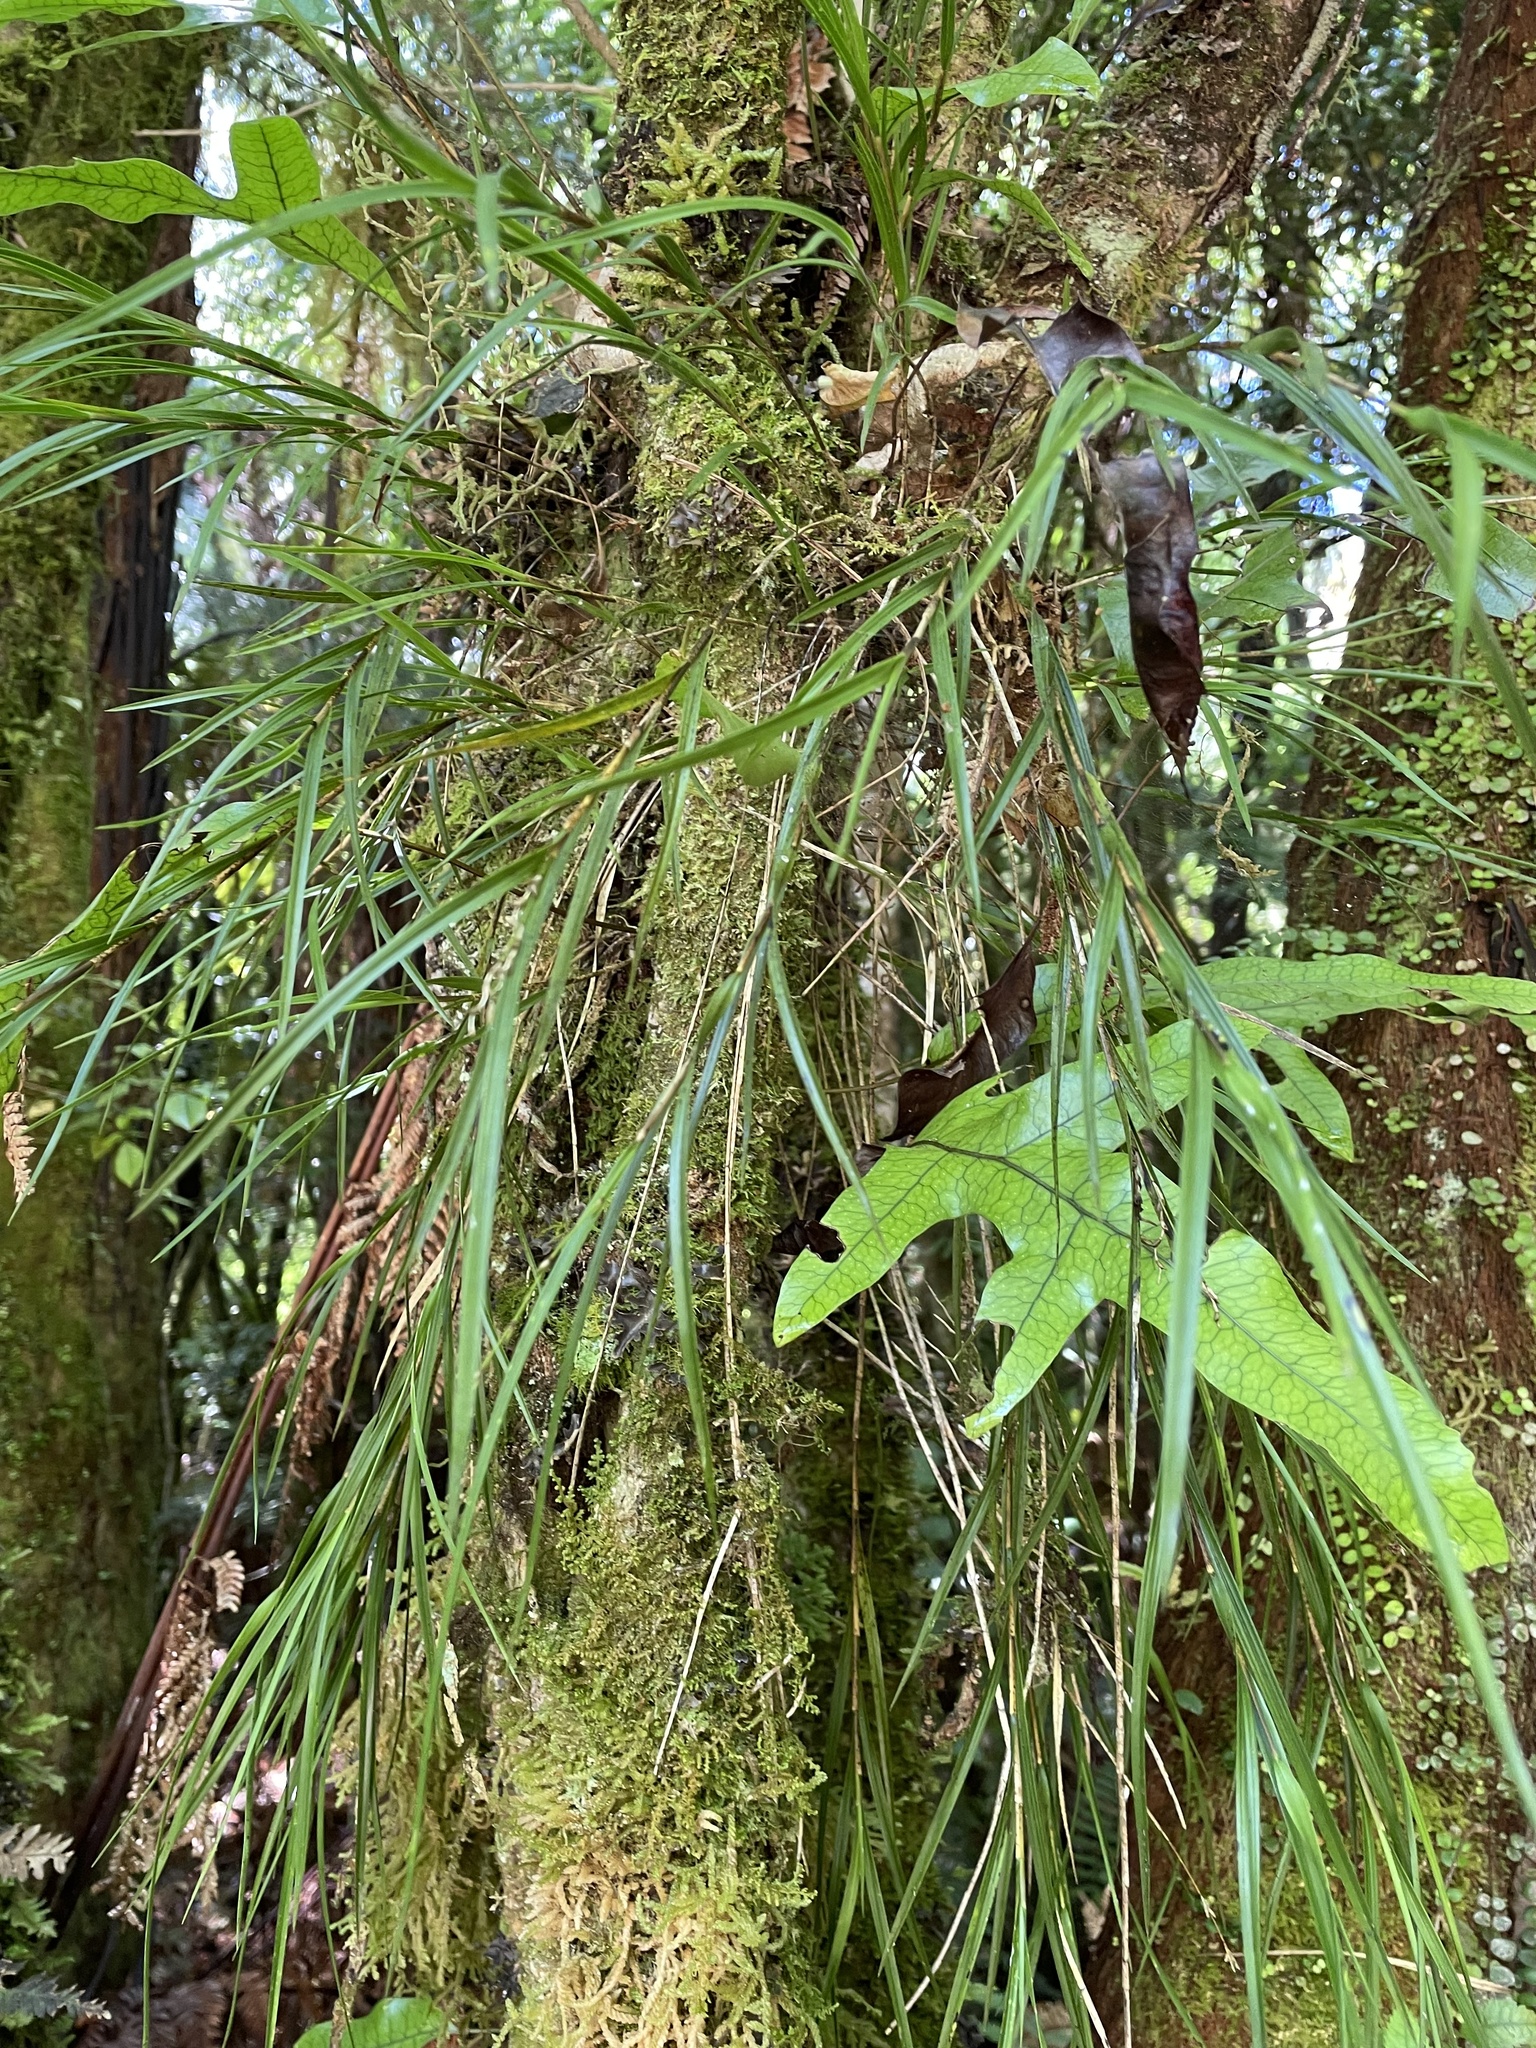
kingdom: Plantae
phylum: Tracheophyta
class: Liliopsida
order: Asparagales
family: Orchidaceae
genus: Earina
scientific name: Earina mucronata
